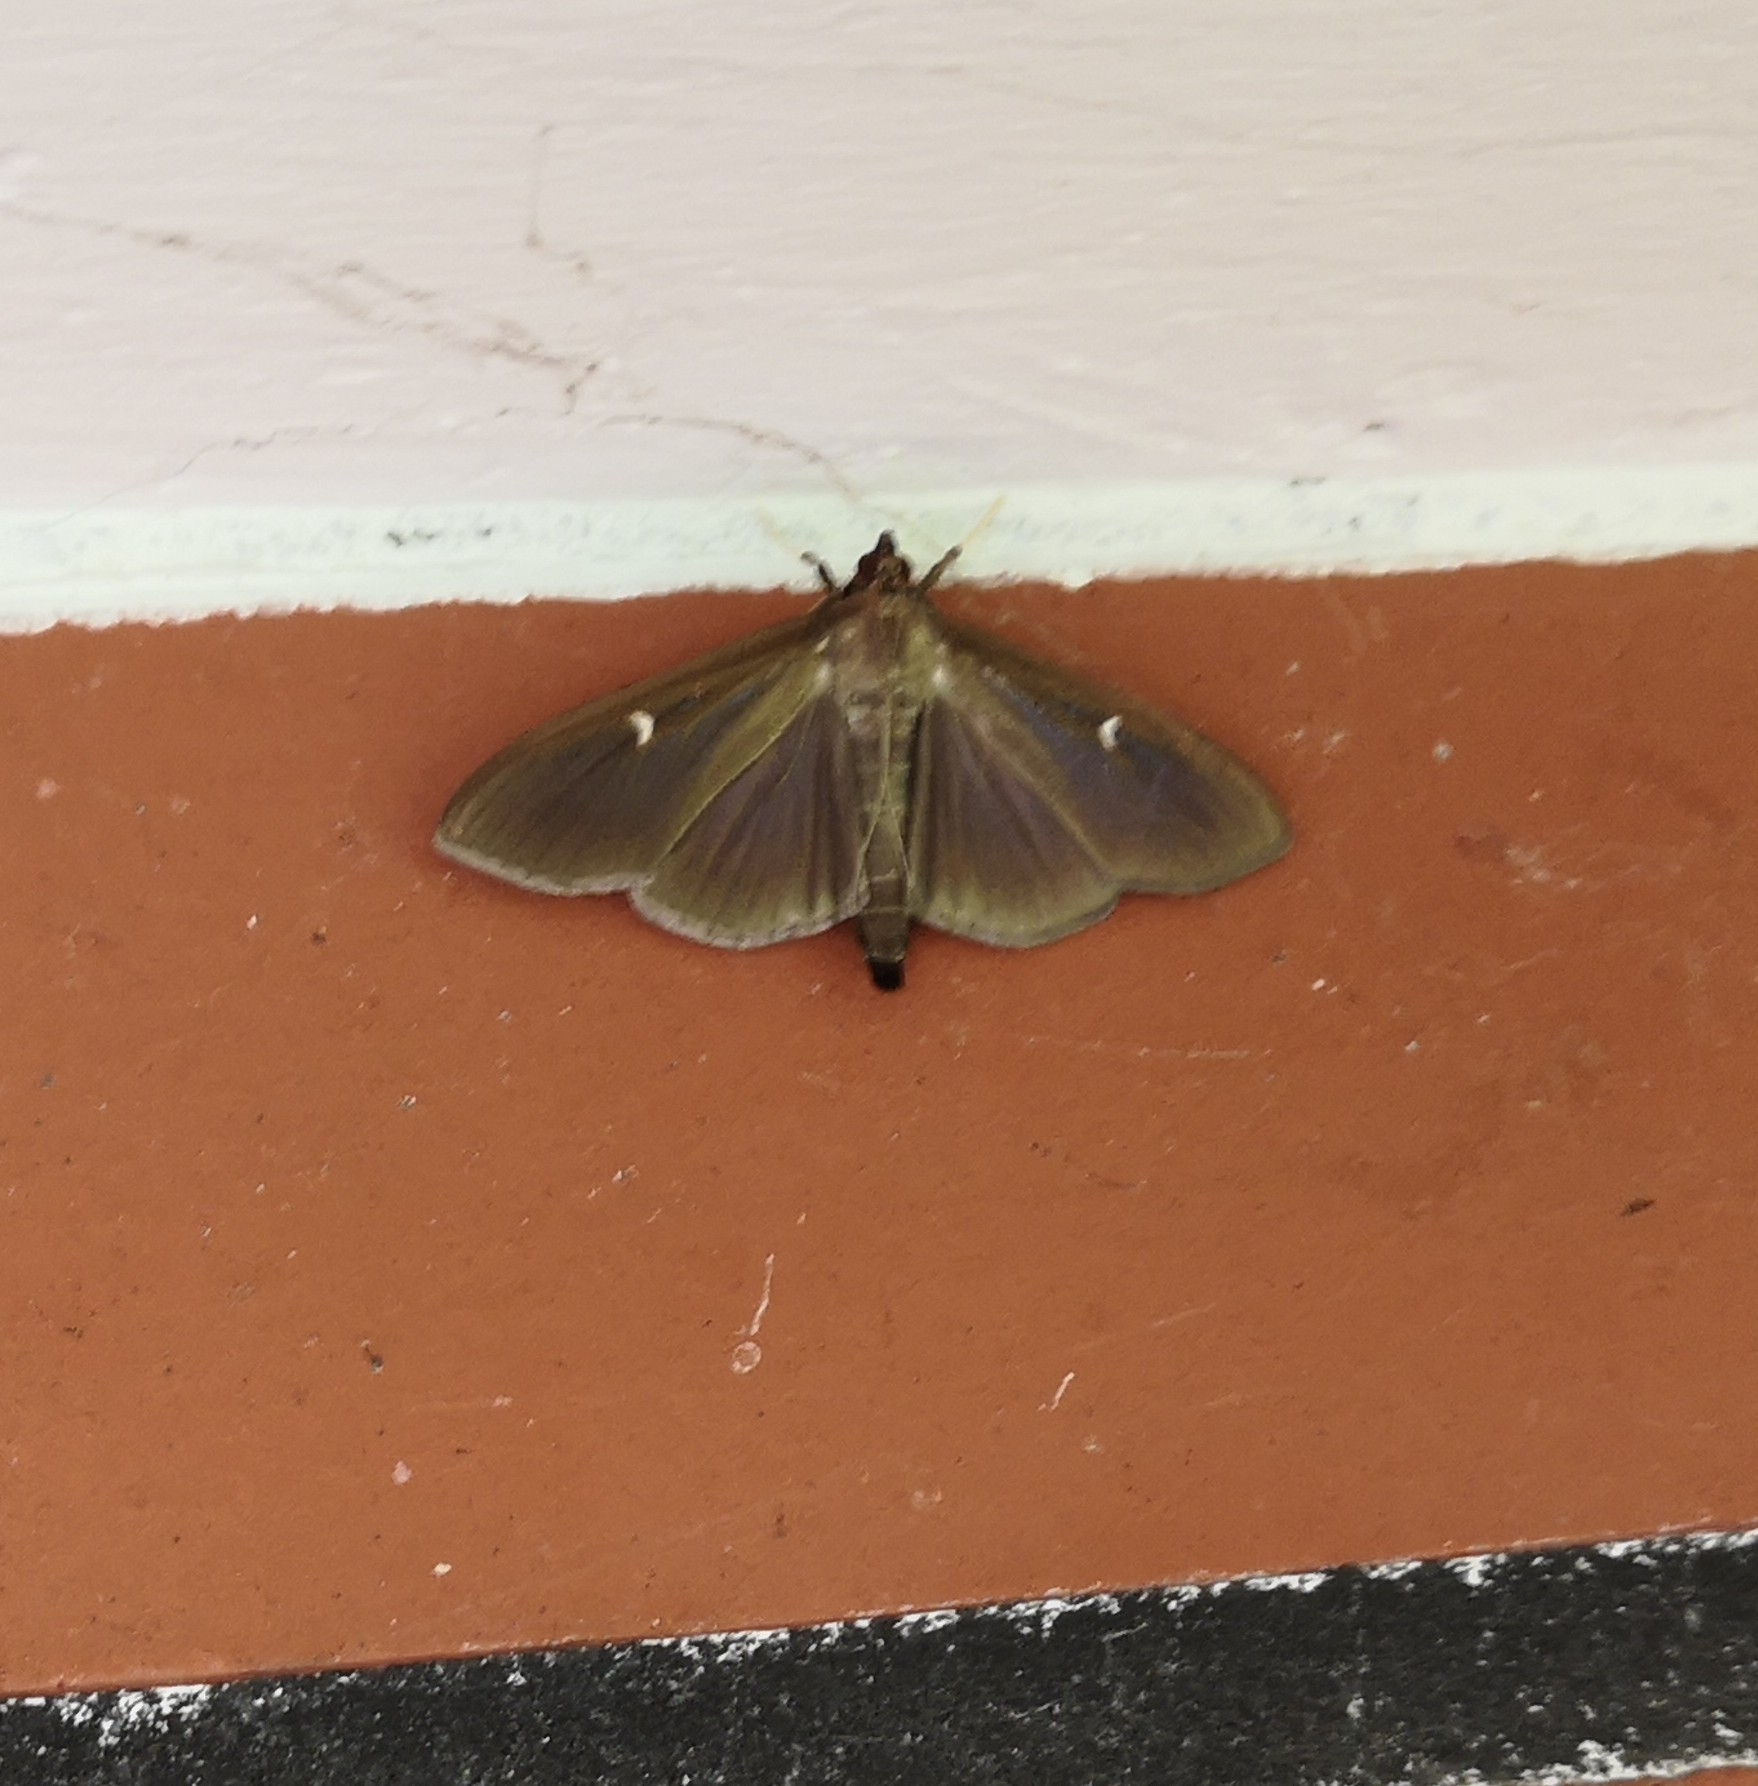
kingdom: Animalia
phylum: Arthropoda
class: Insecta
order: Lepidoptera
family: Crambidae
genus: Cydalima
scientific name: Cydalima perspectalis
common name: Box tree moth
